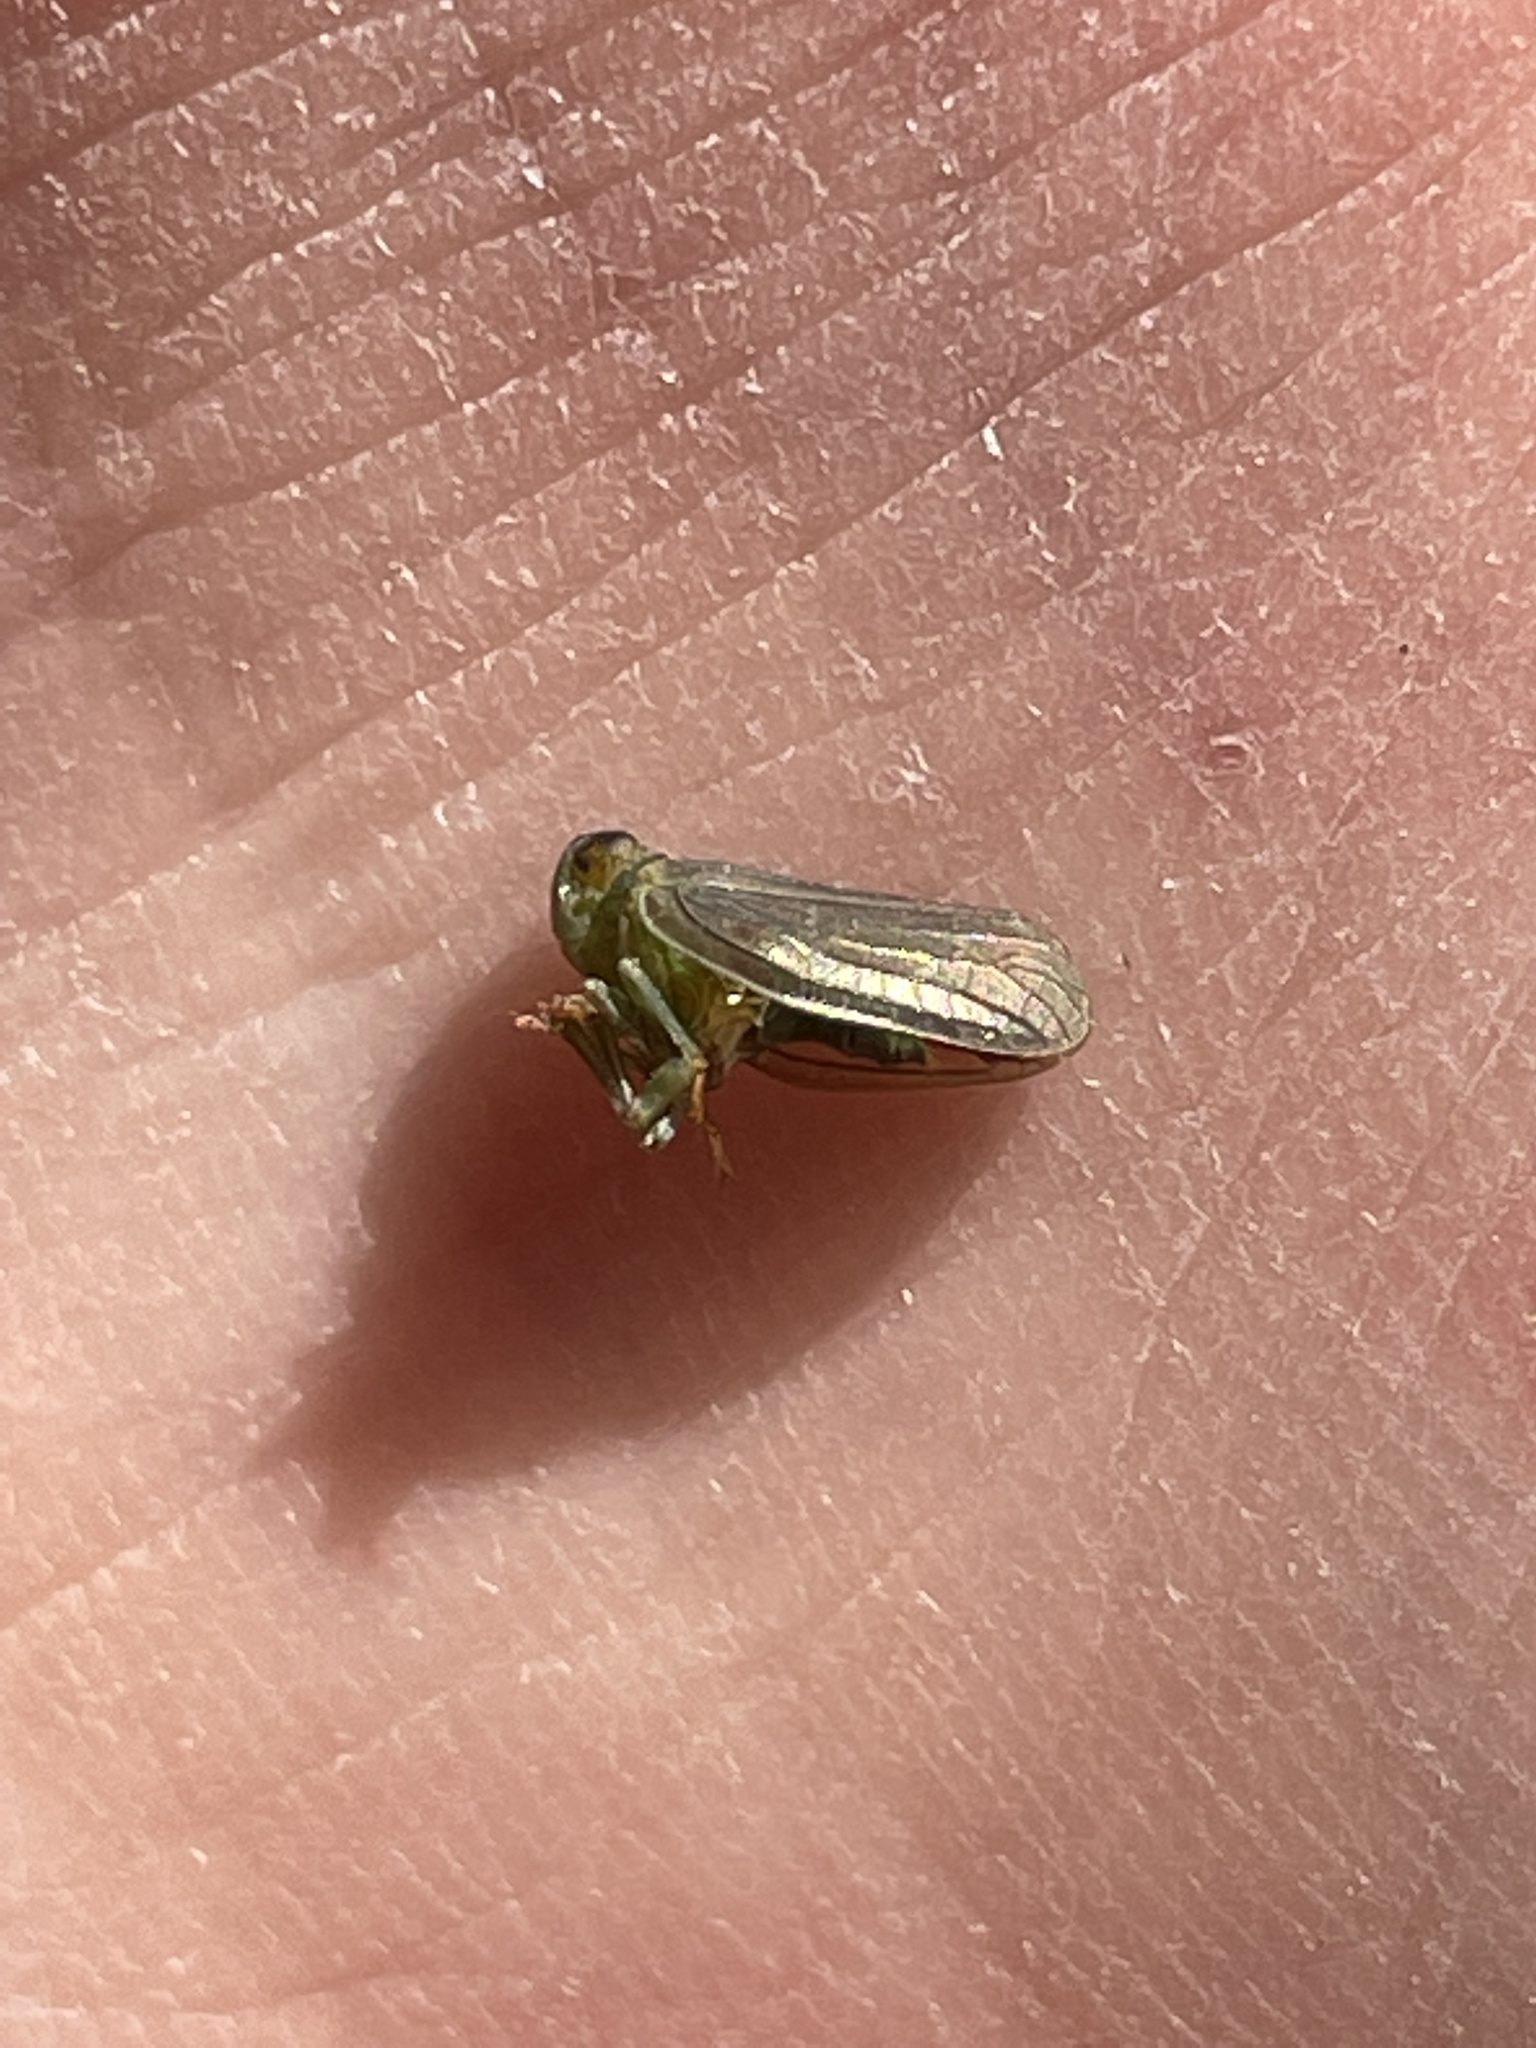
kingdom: Animalia
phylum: Arthropoda
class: Insecta
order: Hemiptera
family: Issidae
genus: Aplos
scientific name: Aplos simplex
